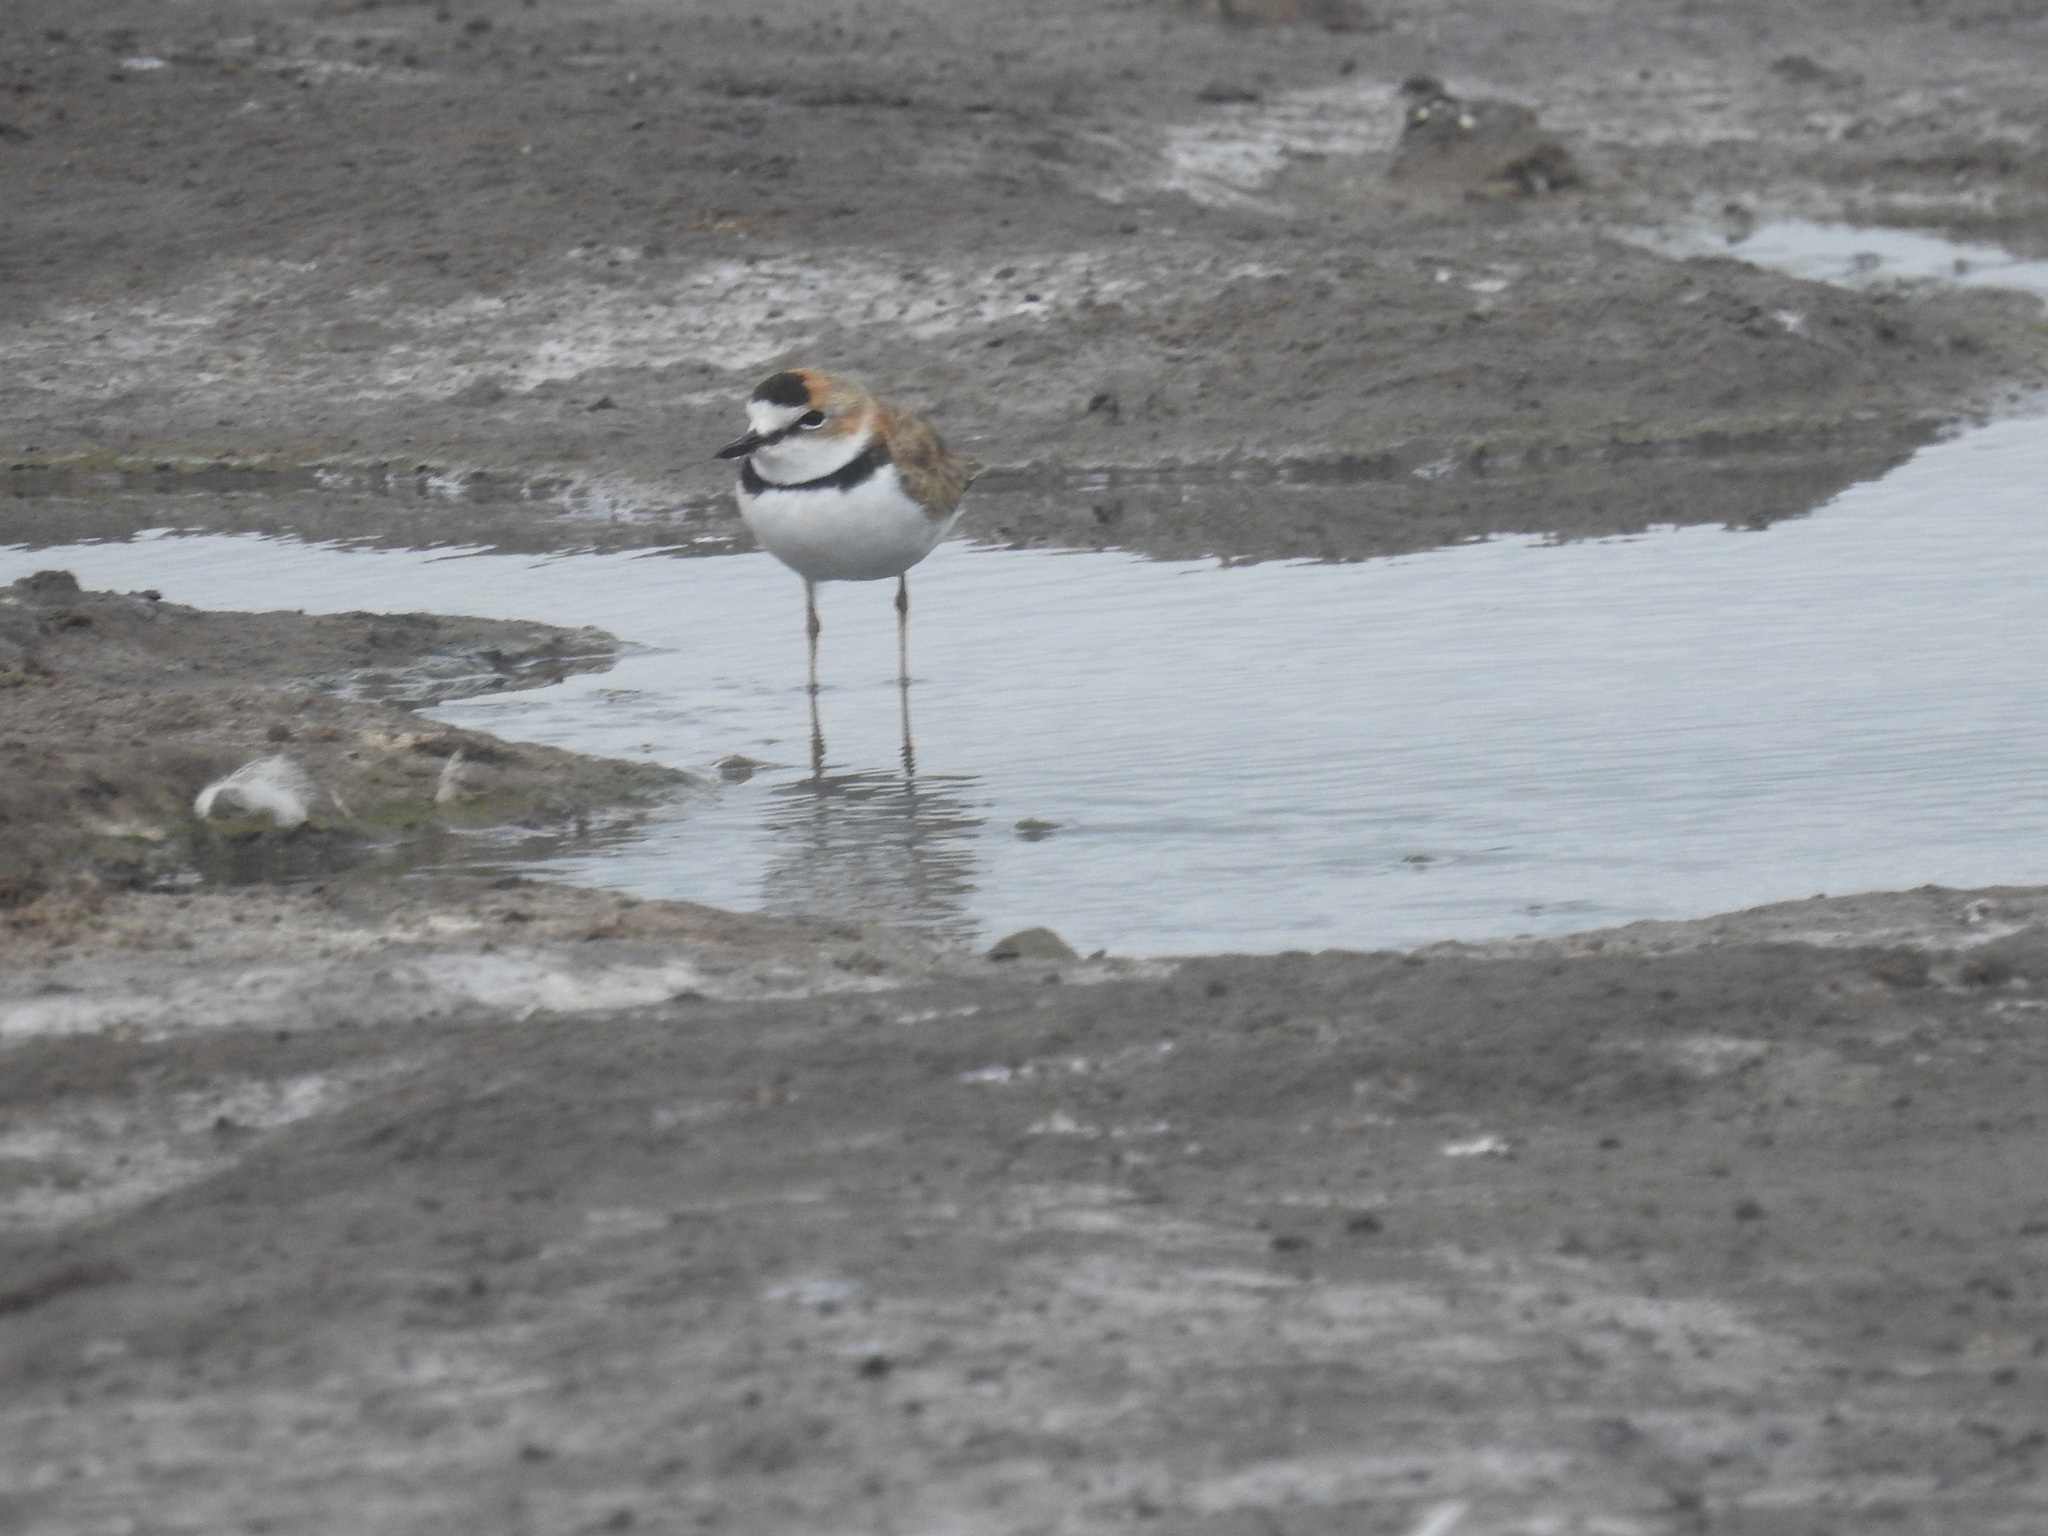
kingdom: Animalia
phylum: Chordata
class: Aves
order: Charadriiformes
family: Charadriidae
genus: Anarhynchus
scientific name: Anarhynchus
